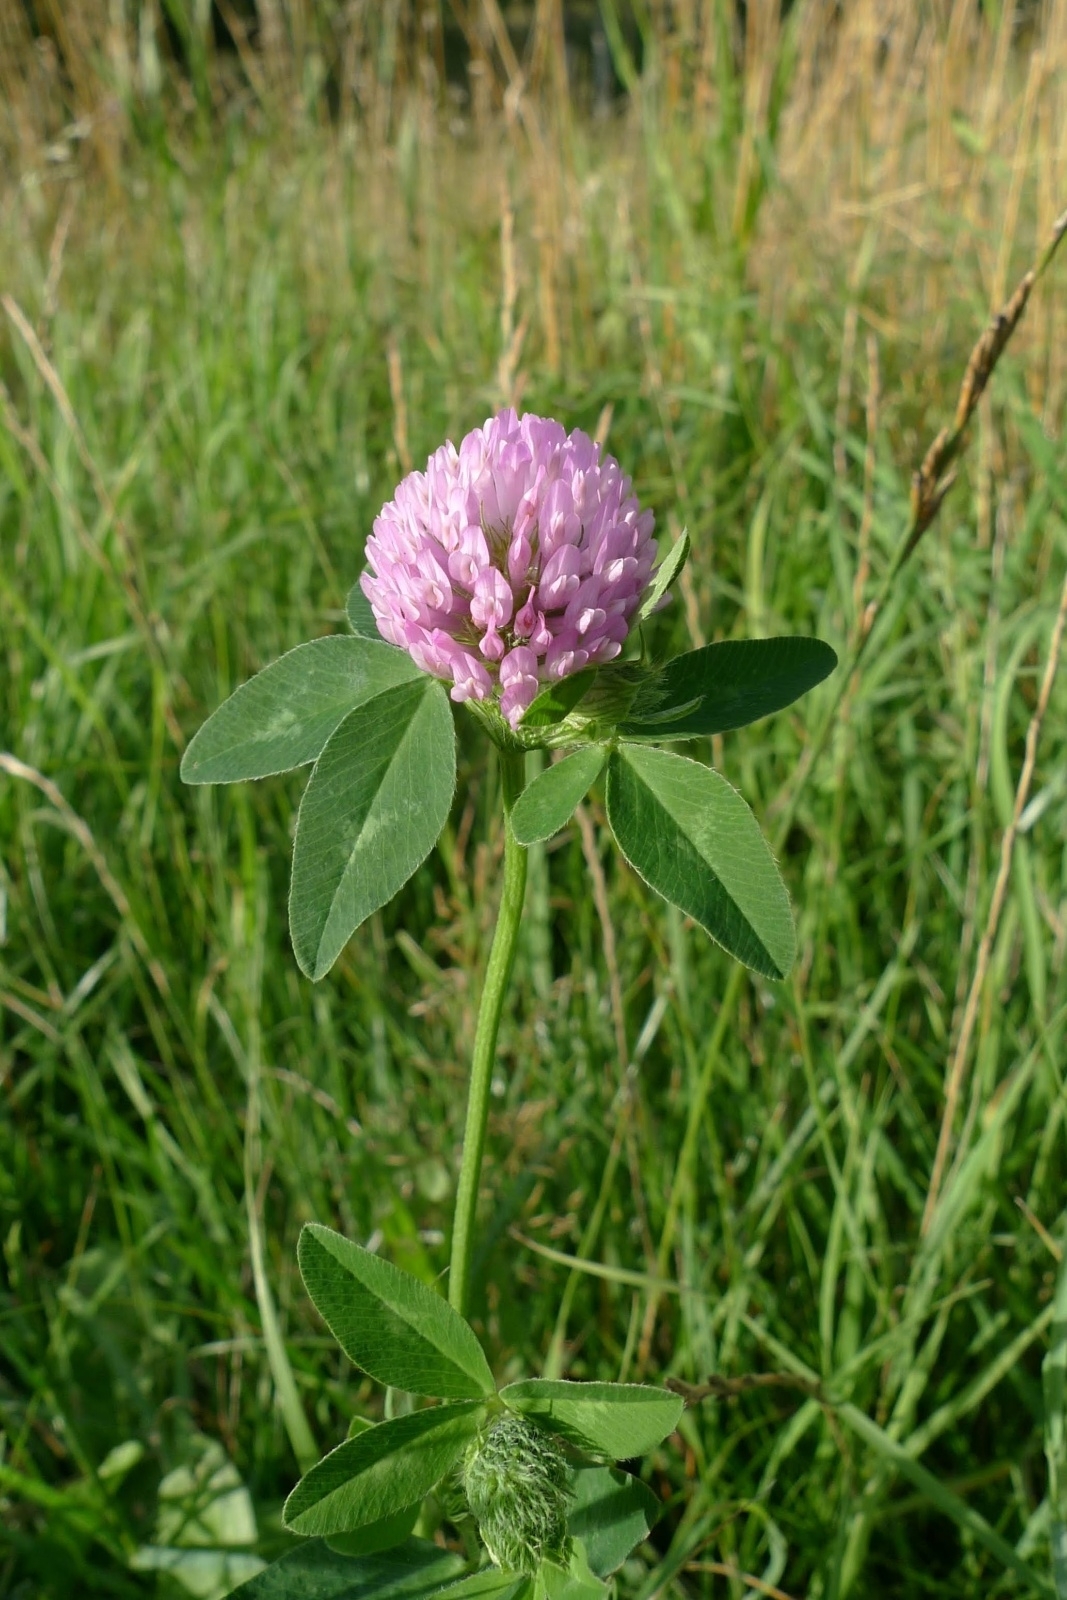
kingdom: Plantae
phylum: Tracheophyta
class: Magnoliopsida
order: Fabales
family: Fabaceae
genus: Trifolium
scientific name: Trifolium pratense
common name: Red clover
